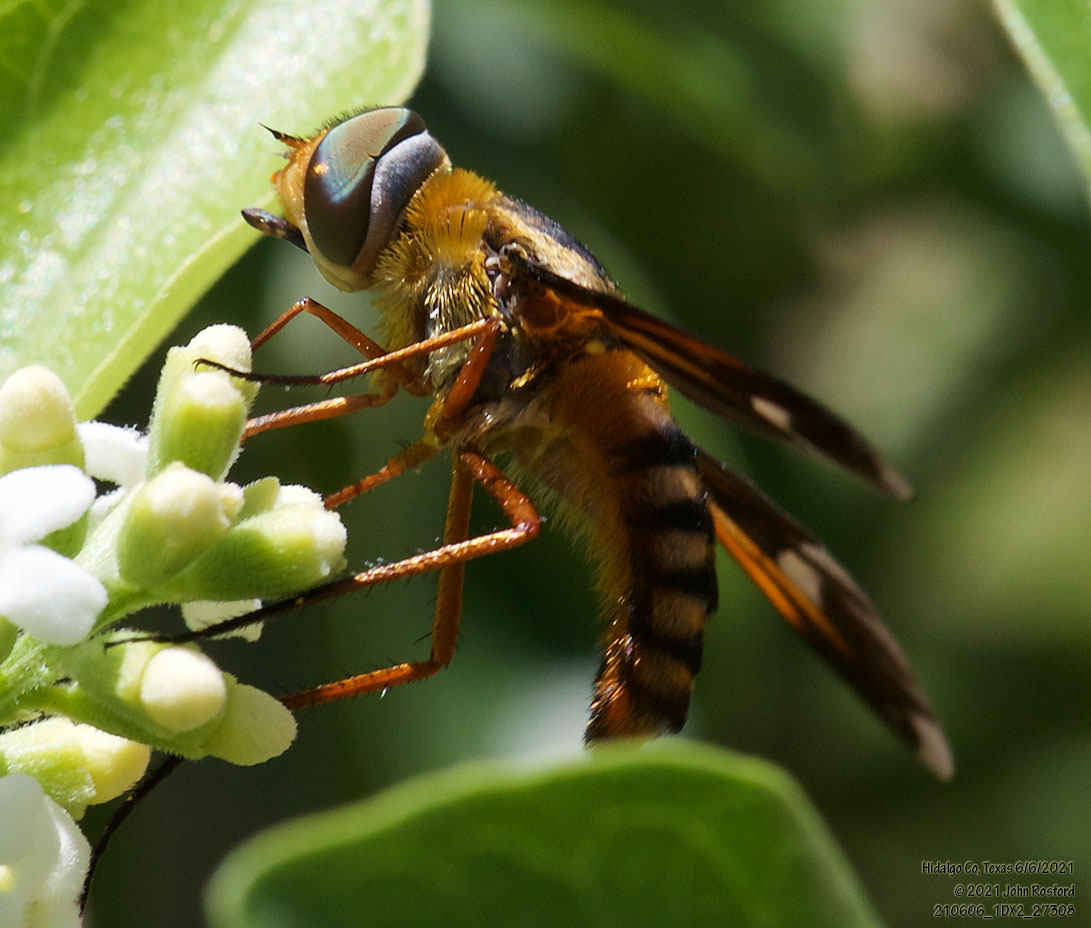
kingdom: Animalia
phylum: Arthropoda
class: Insecta
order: Diptera
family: Bombyliidae
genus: Poecilanthrax
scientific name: Poecilanthrax effrenus
